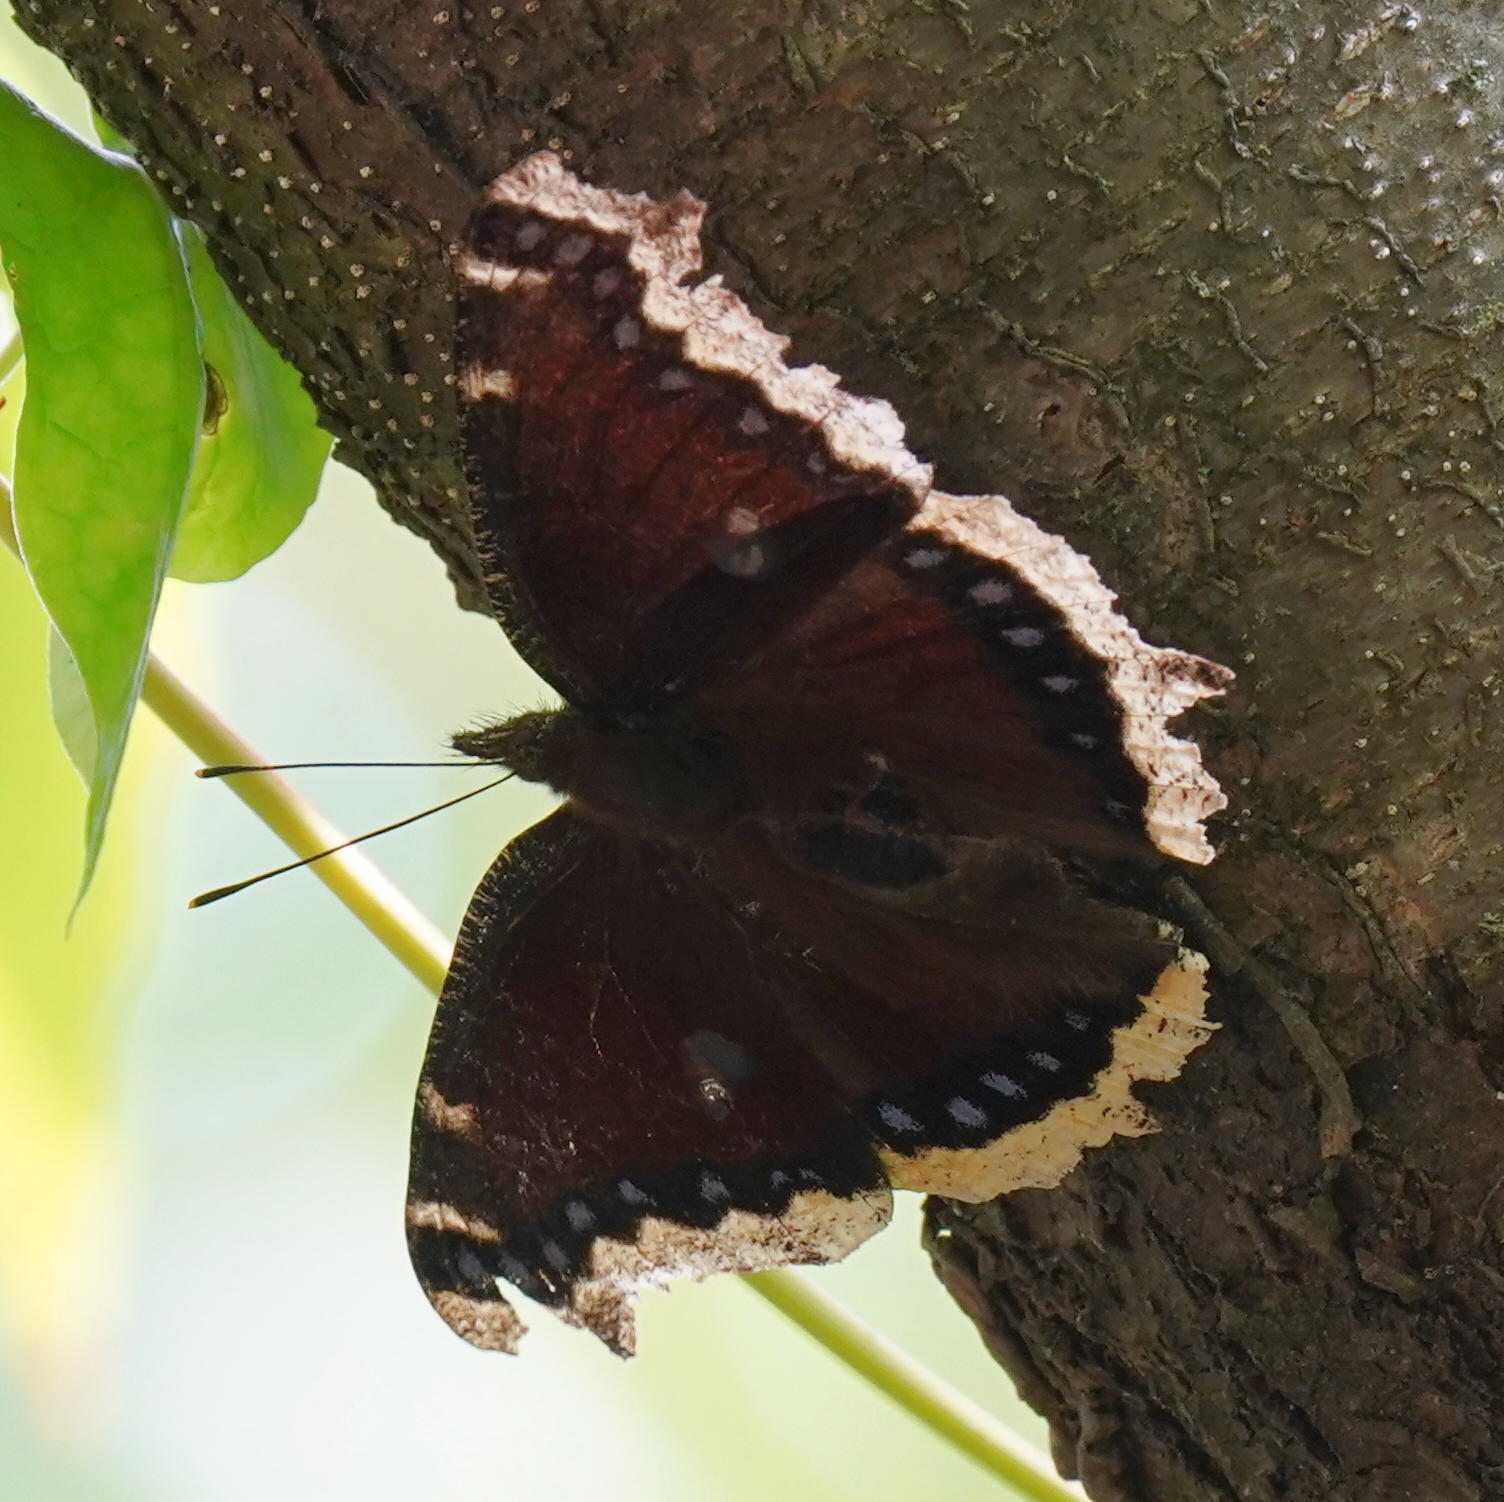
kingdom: Animalia
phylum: Arthropoda
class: Insecta
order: Lepidoptera
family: Nymphalidae
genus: Nymphalis
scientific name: Nymphalis antiopa
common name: Camberwell beauty
